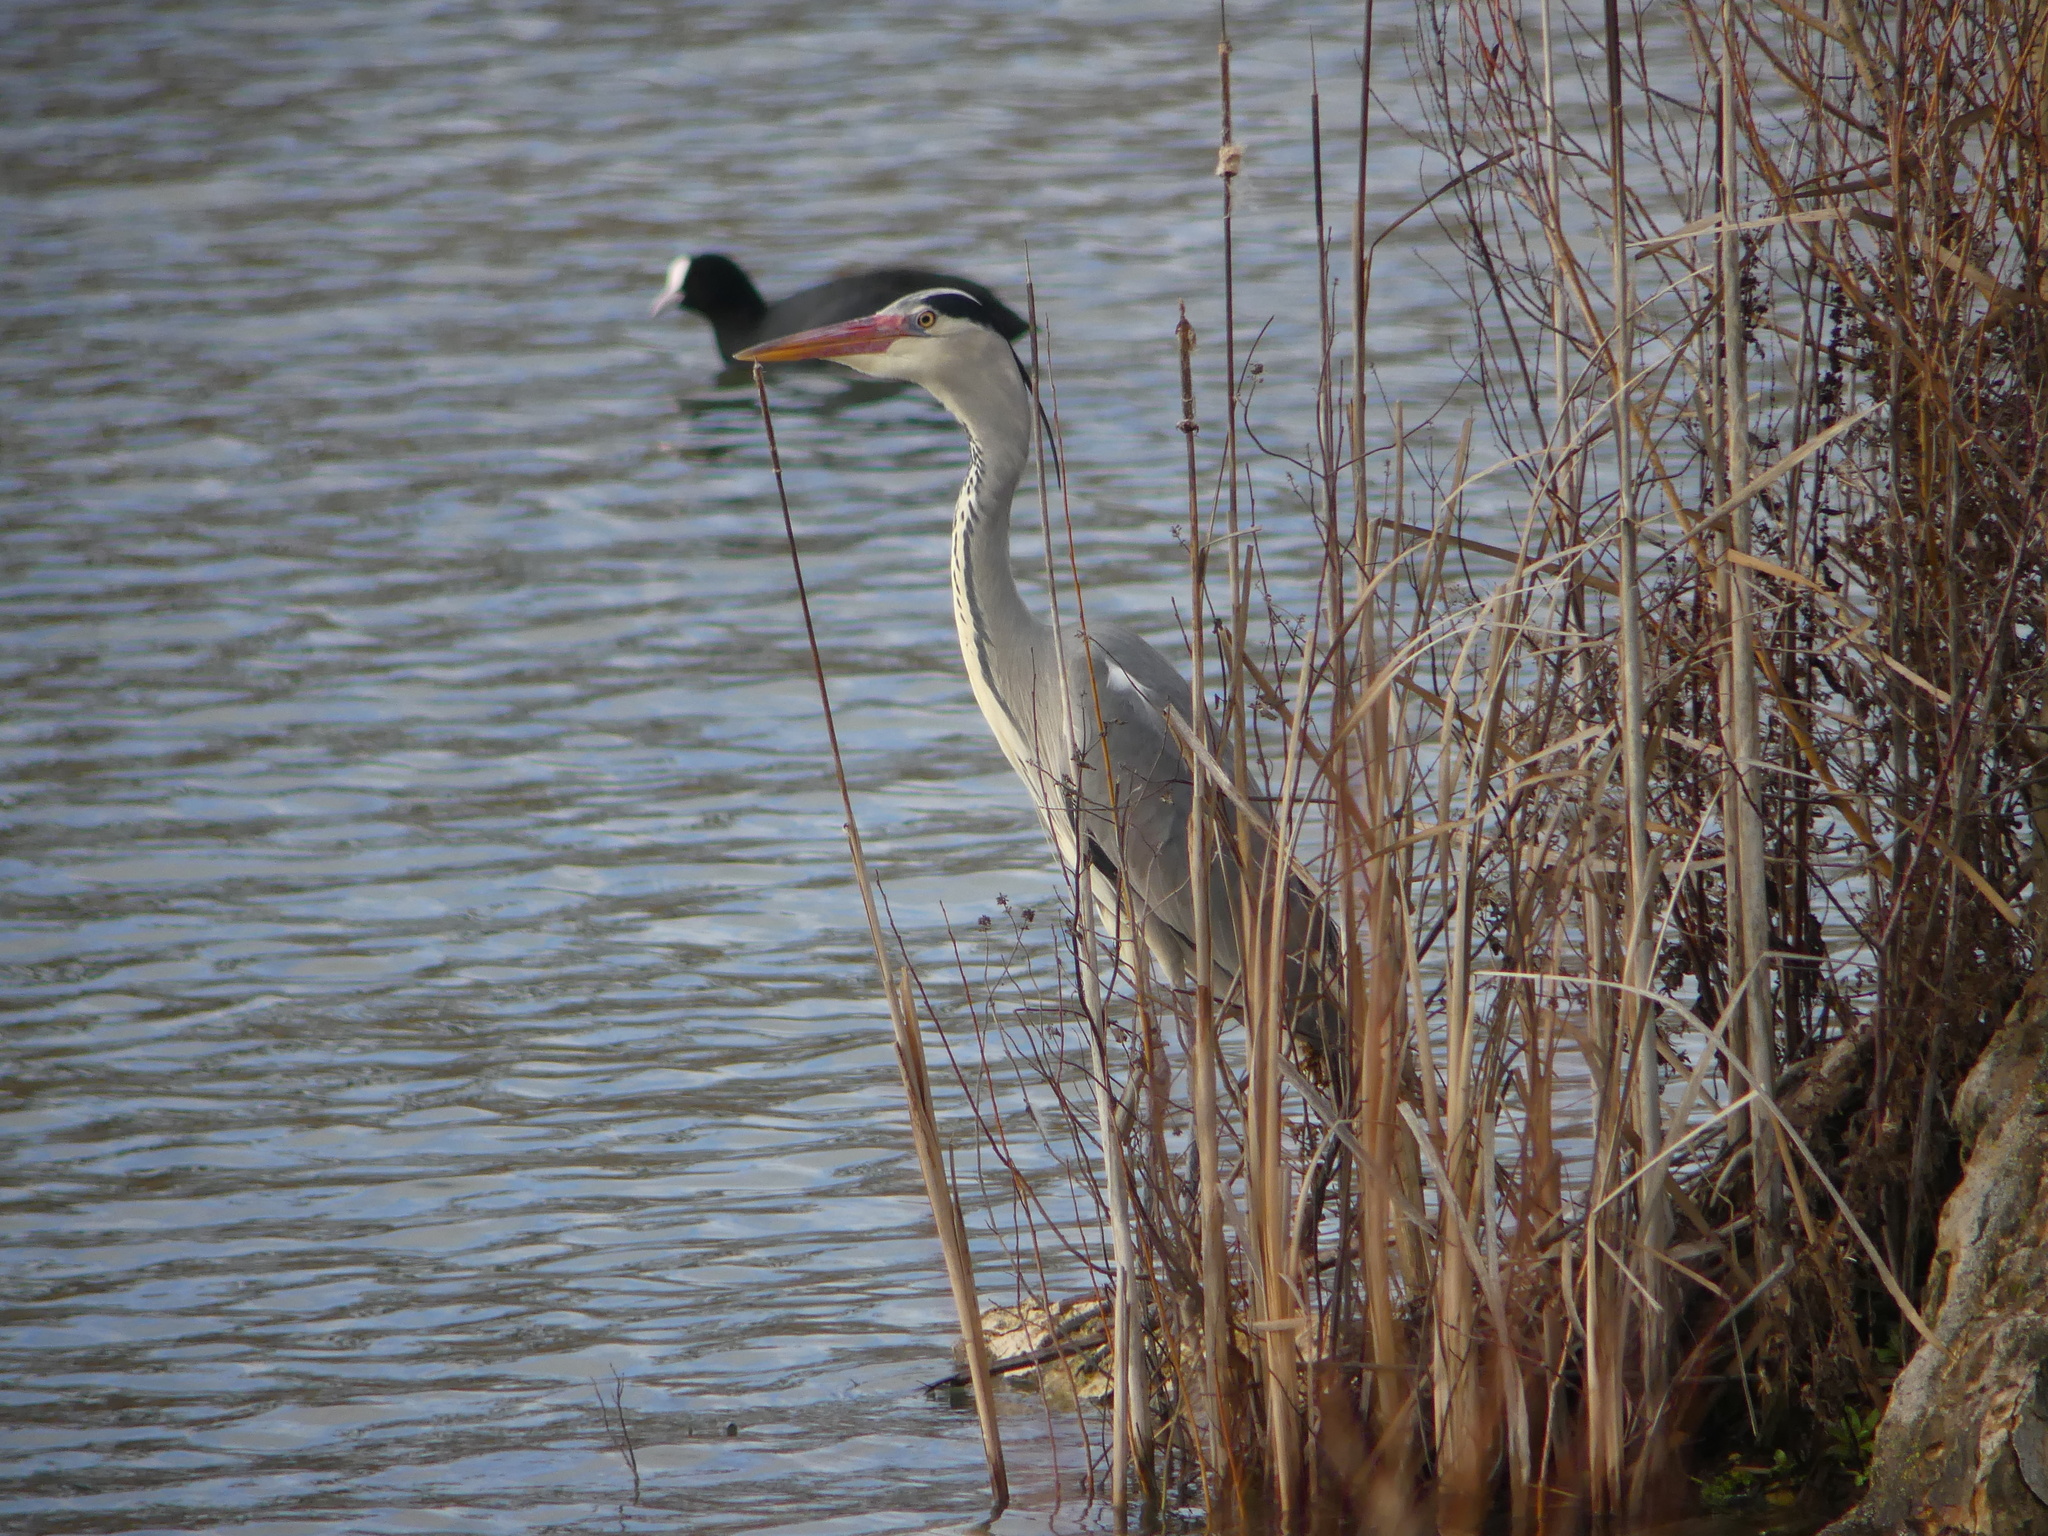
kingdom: Animalia
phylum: Chordata
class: Aves
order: Pelecaniformes
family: Ardeidae
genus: Ardea
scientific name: Ardea cinerea
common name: Grey heron
